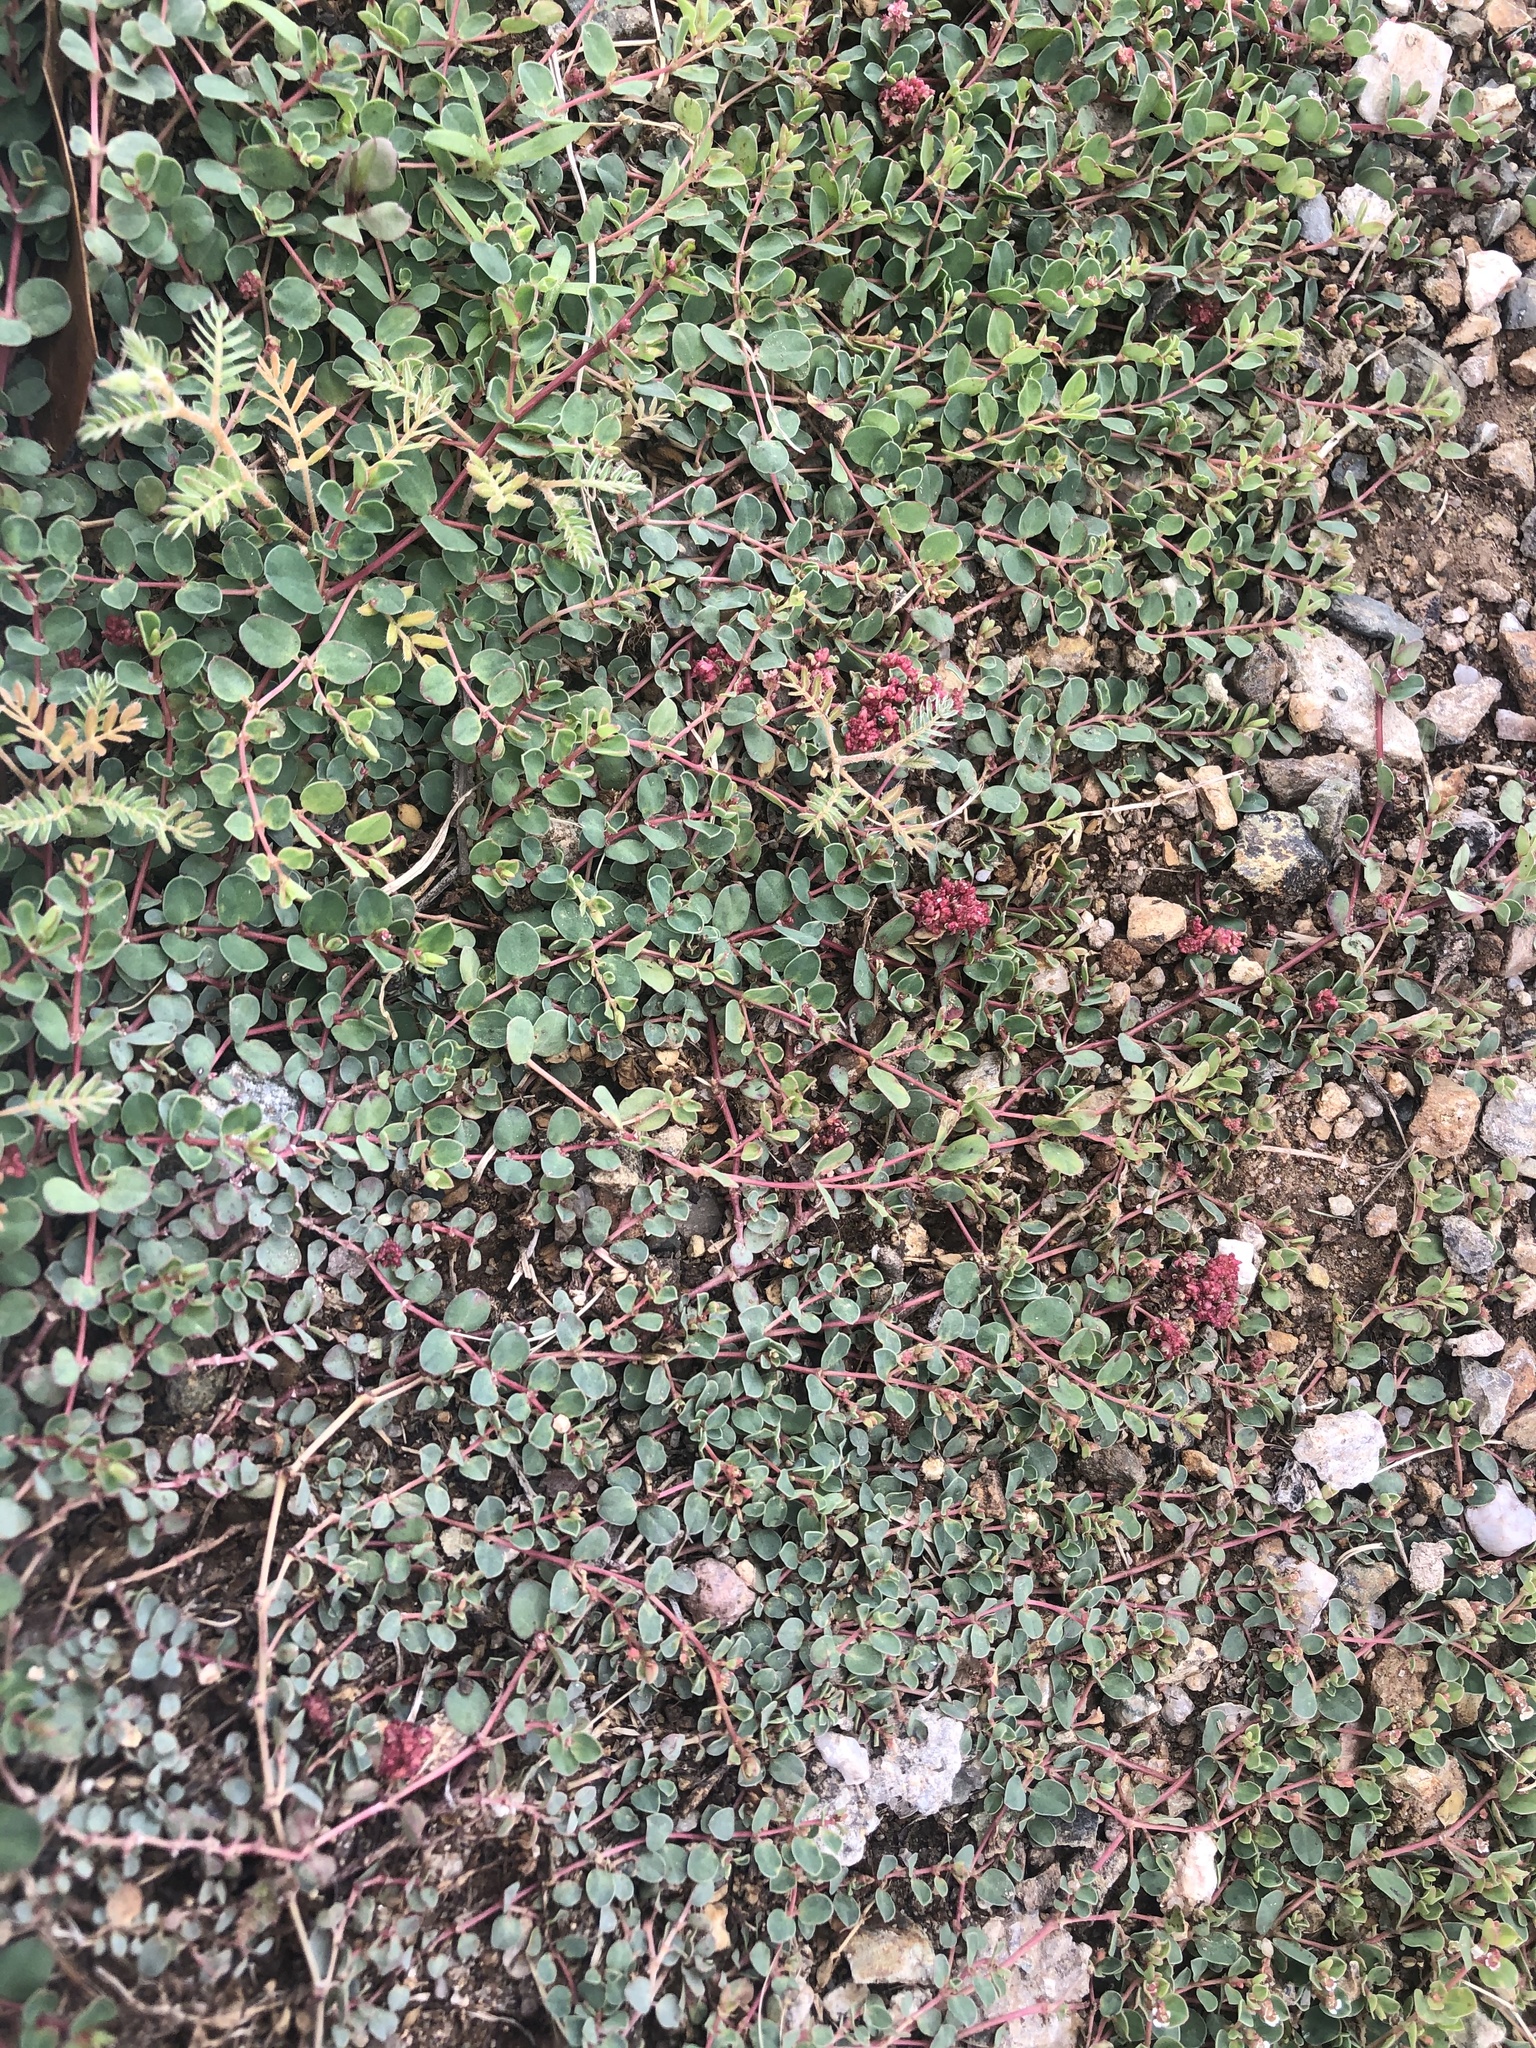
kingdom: Plantae
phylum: Tracheophyta
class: Magnoliopsida
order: Malpighiales
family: Euphorbiaceae
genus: Euphorbia
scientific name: Euphorbia albomarginata
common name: Whitemargin sandmat
